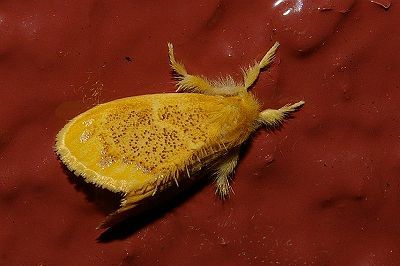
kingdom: Animalia
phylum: Arthropoda
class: Insecta
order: Lepidoptera
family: Erebidae
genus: Somena
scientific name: Somena
